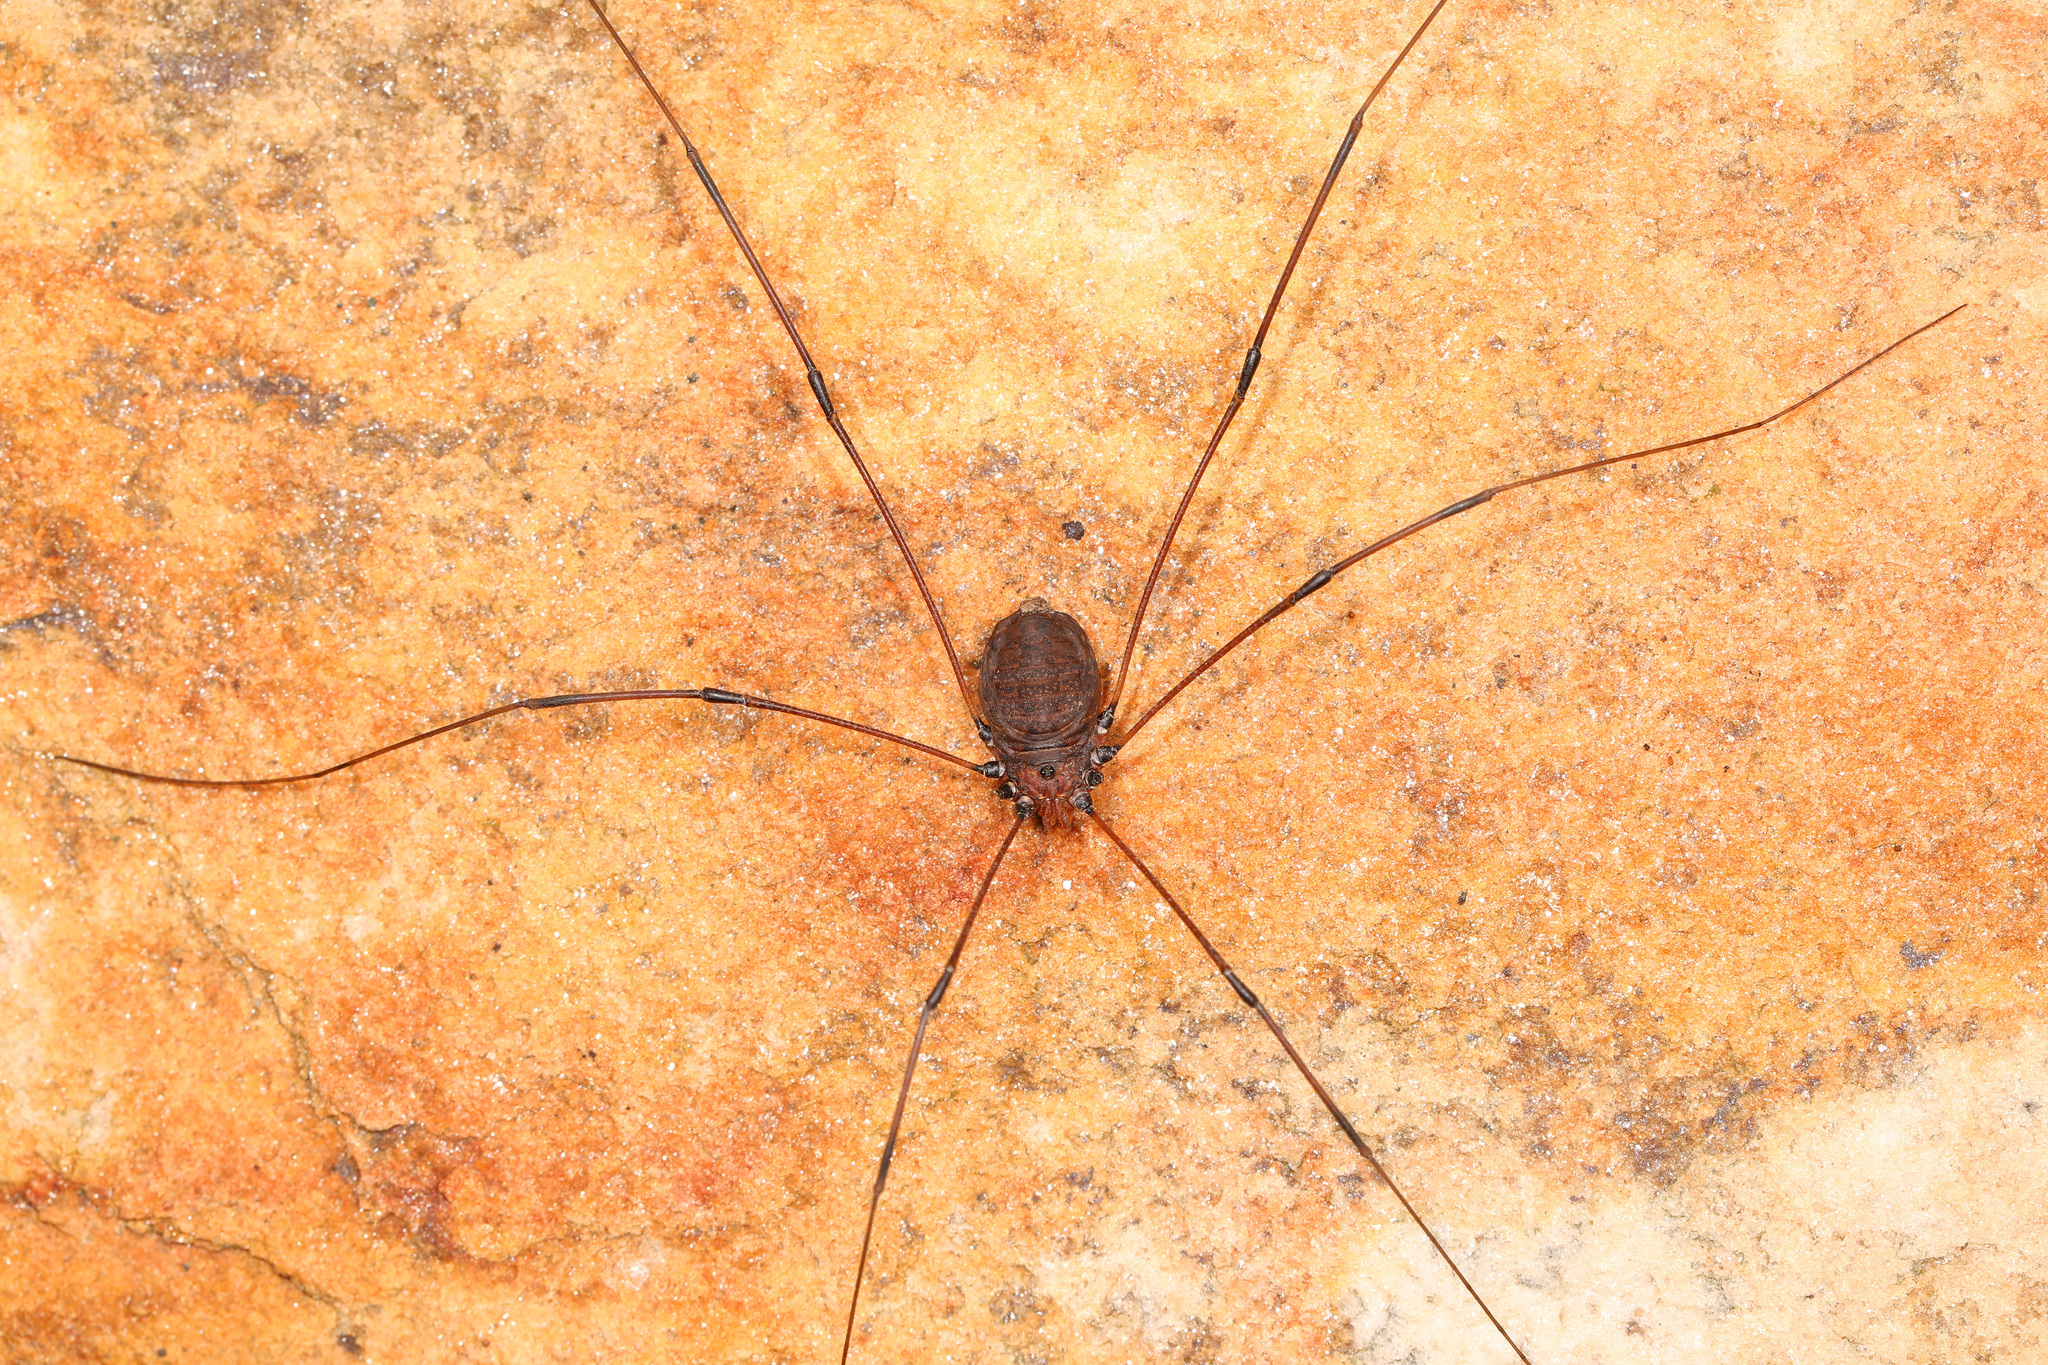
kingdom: Animalia
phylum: Arthropoda
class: Arachnida
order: Opiliones
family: Sclerosomatidae
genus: Leiobunum
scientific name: Leiobunum vittatum
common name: Eastern harvestman
